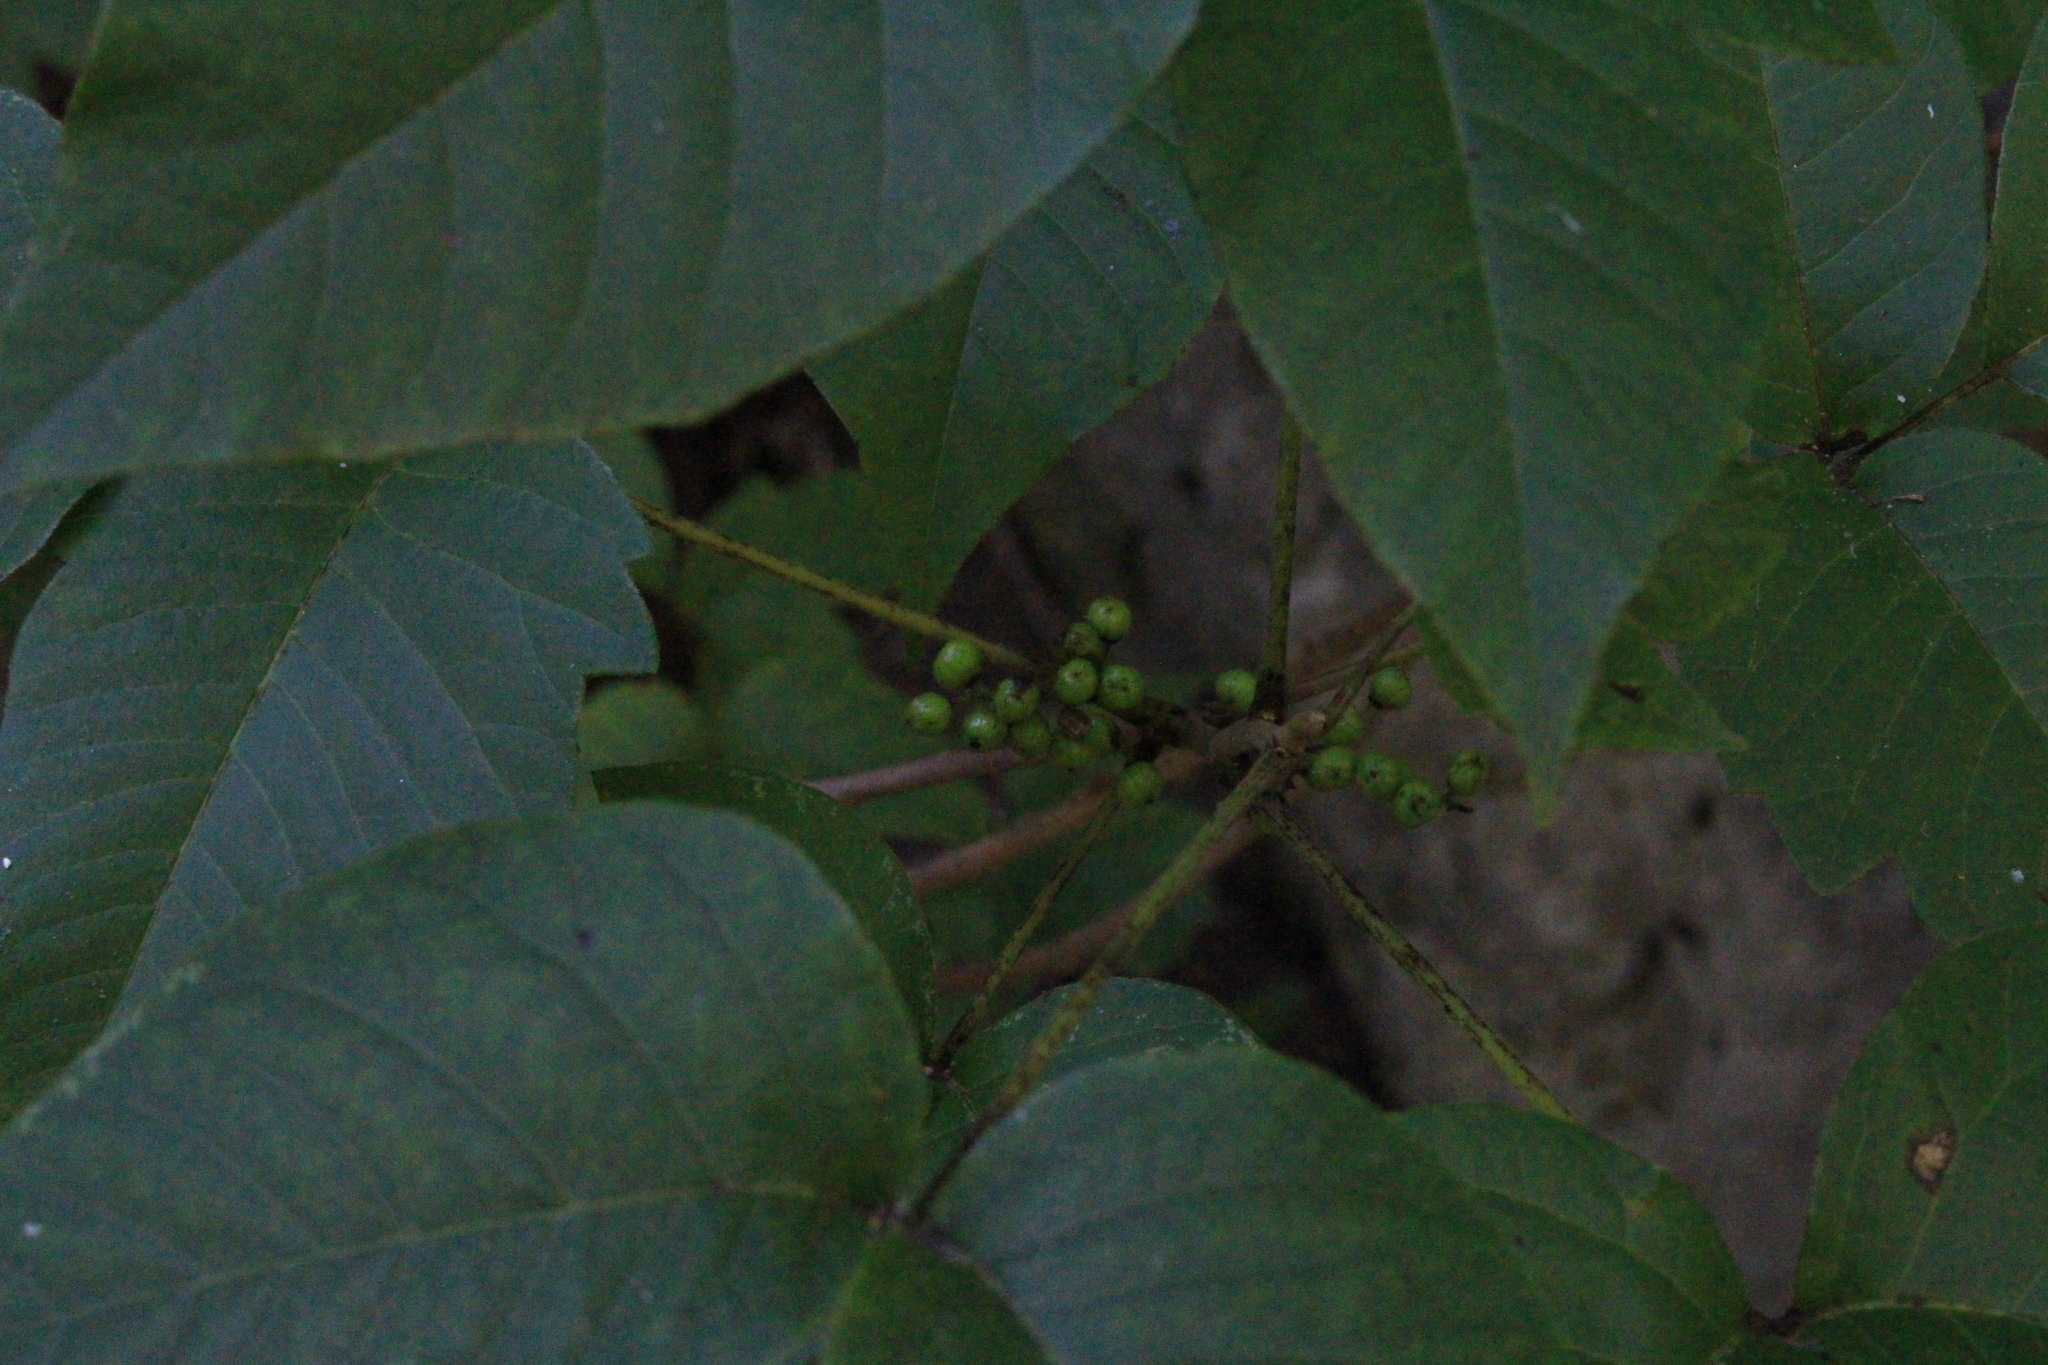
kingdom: Plantae
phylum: Tracheophyta
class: Magnoliopsida
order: Sapindales
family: Anacardiaceae
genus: Toxicodendron
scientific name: Toxicodendron radicans
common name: Poison ivy
